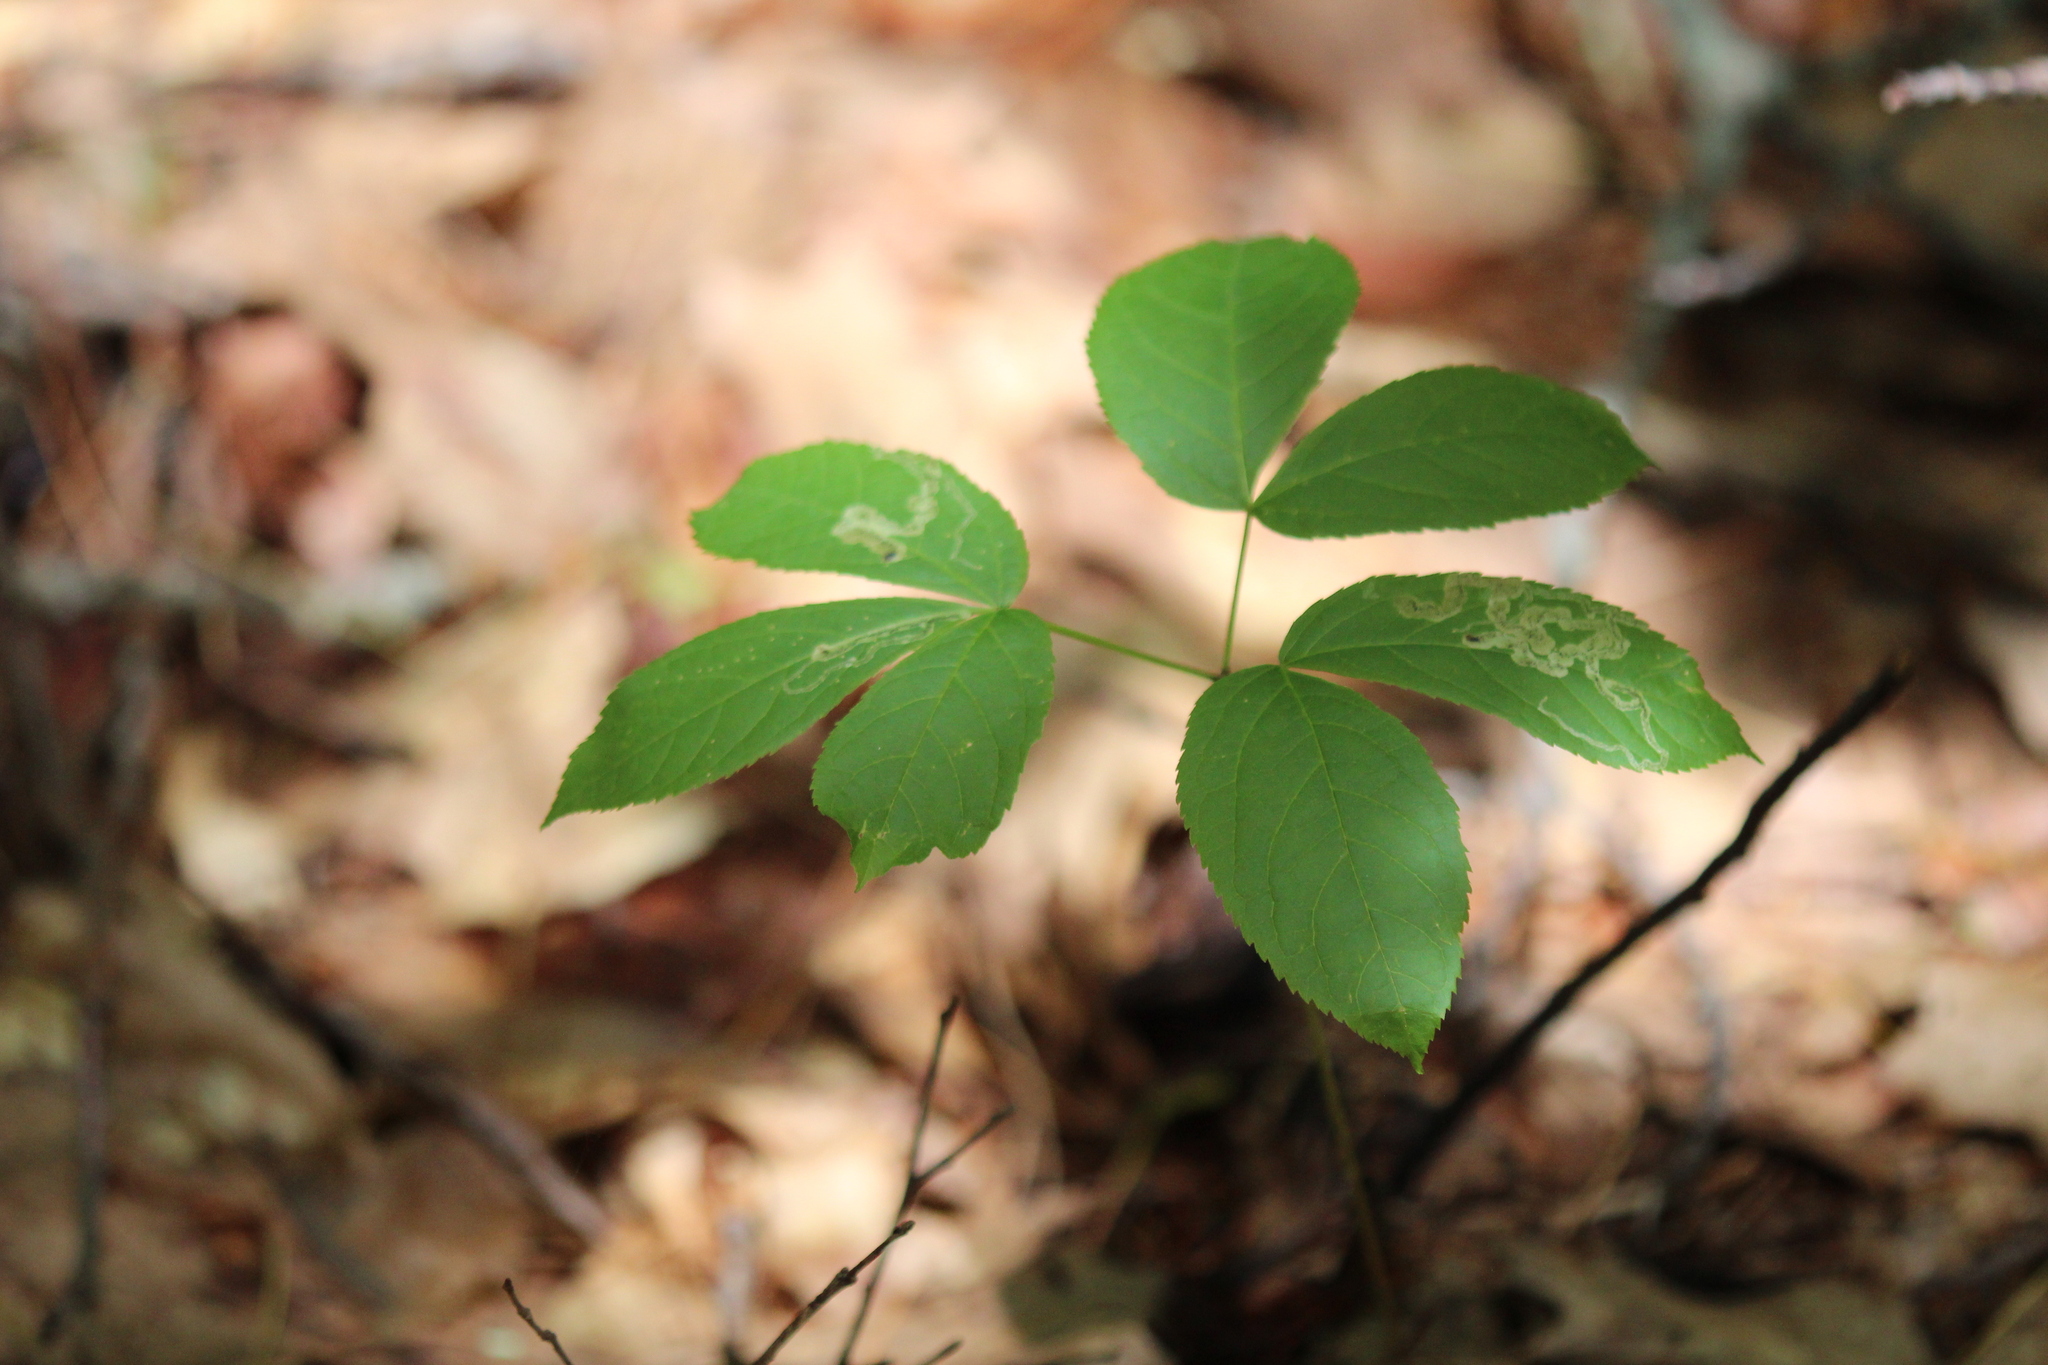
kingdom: Plantae
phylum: Tracheophyta
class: Magnoliopsida
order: Apiales
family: Araliaceae
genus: Aralia
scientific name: Aralia nudicaulis
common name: Wild sarsaparilla
